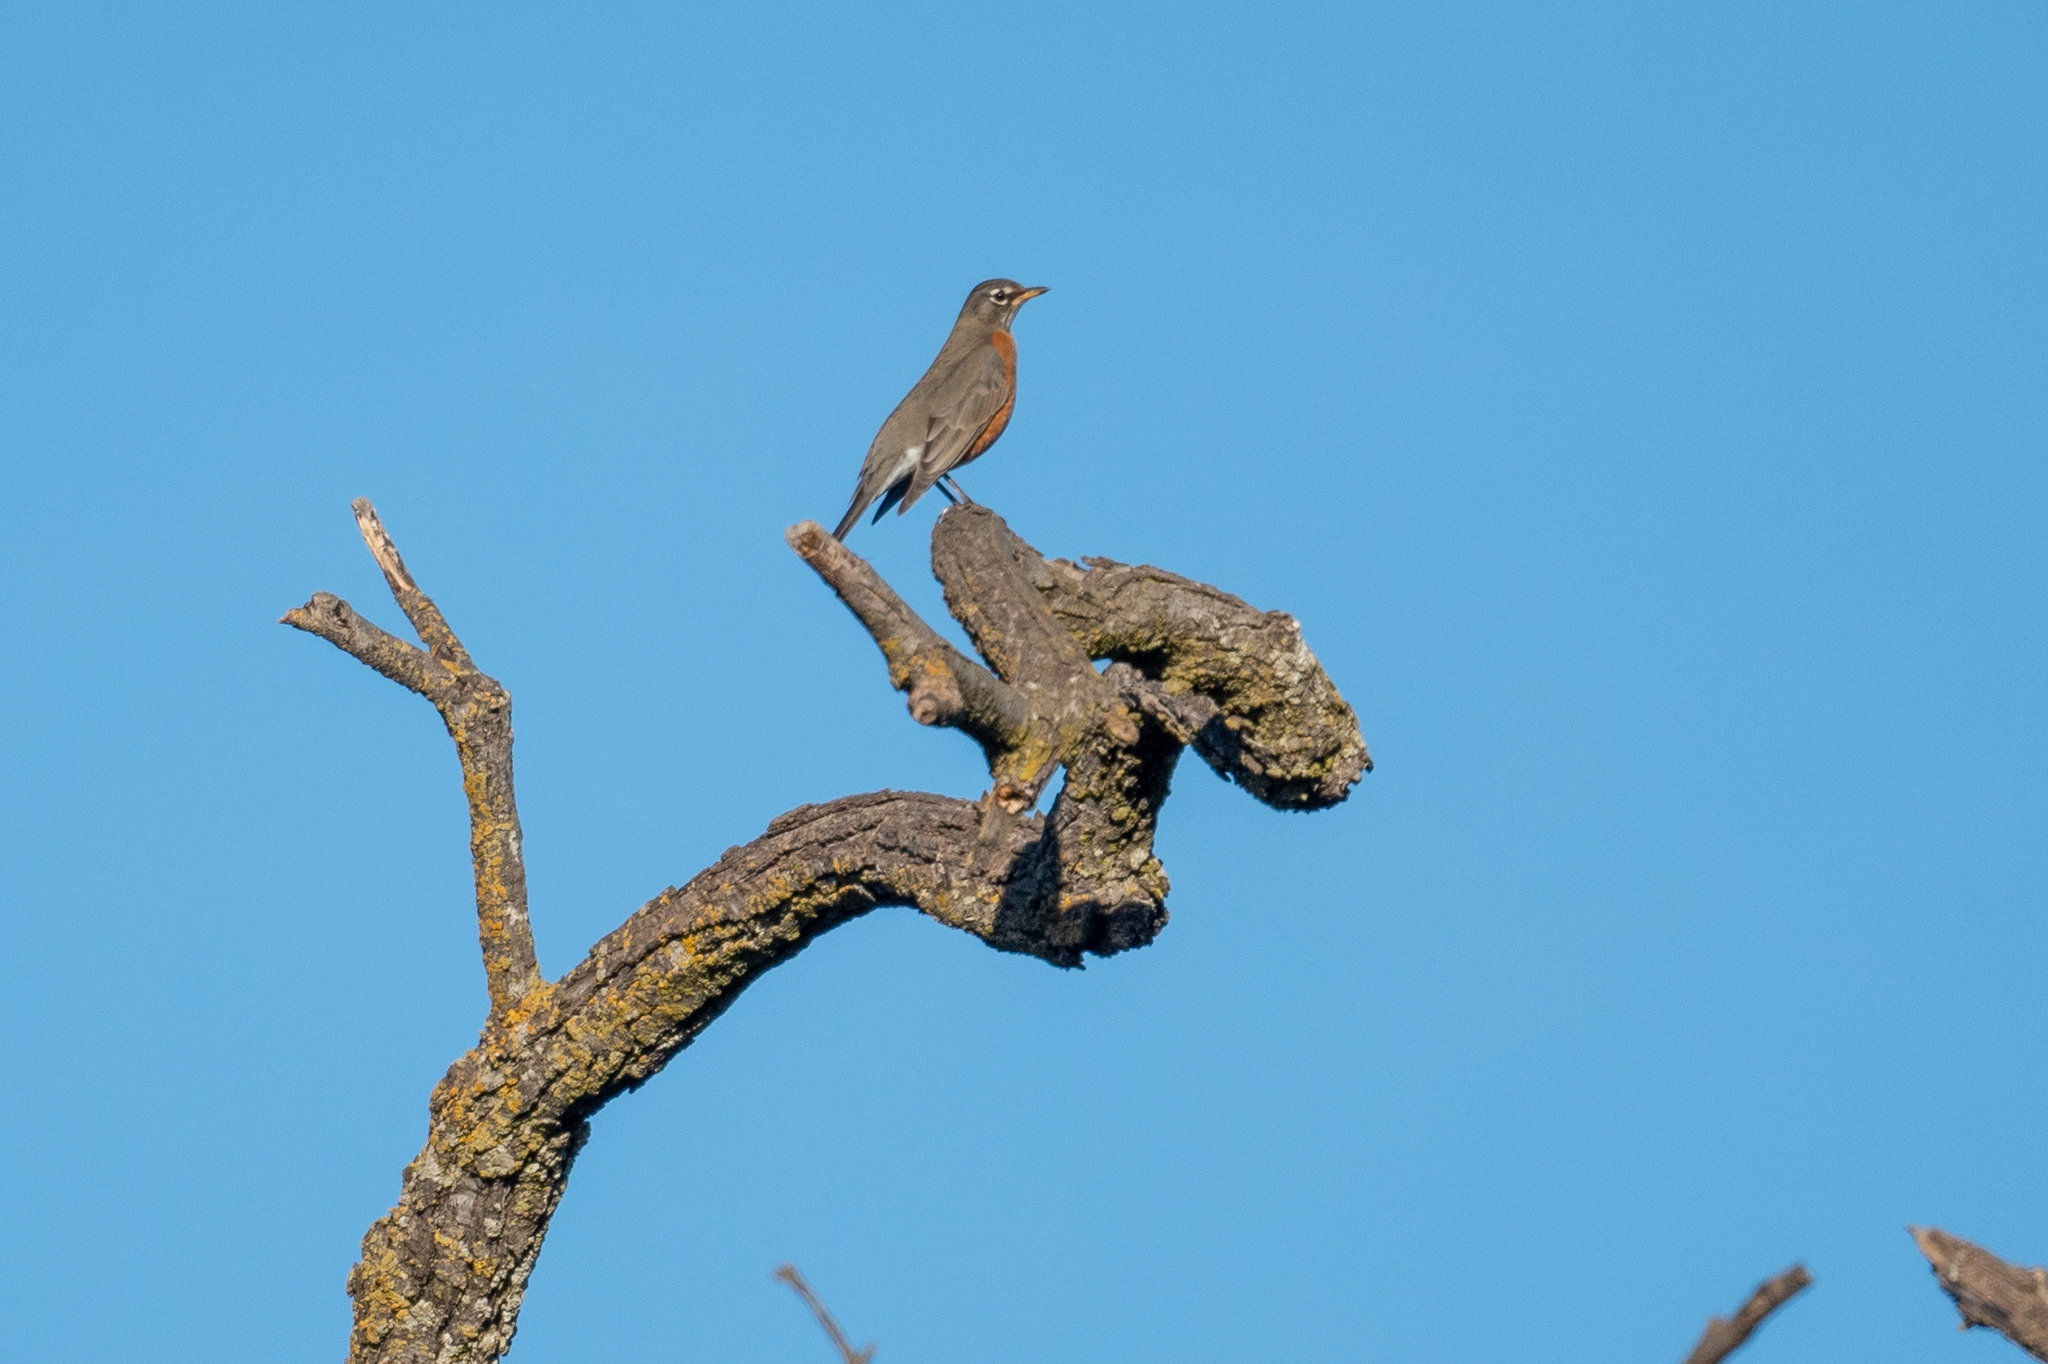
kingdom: Animalia
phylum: Chordata
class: Aves
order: Passeriformes
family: Turdidae
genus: Turdus
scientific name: Turdus migratorius
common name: American robin
